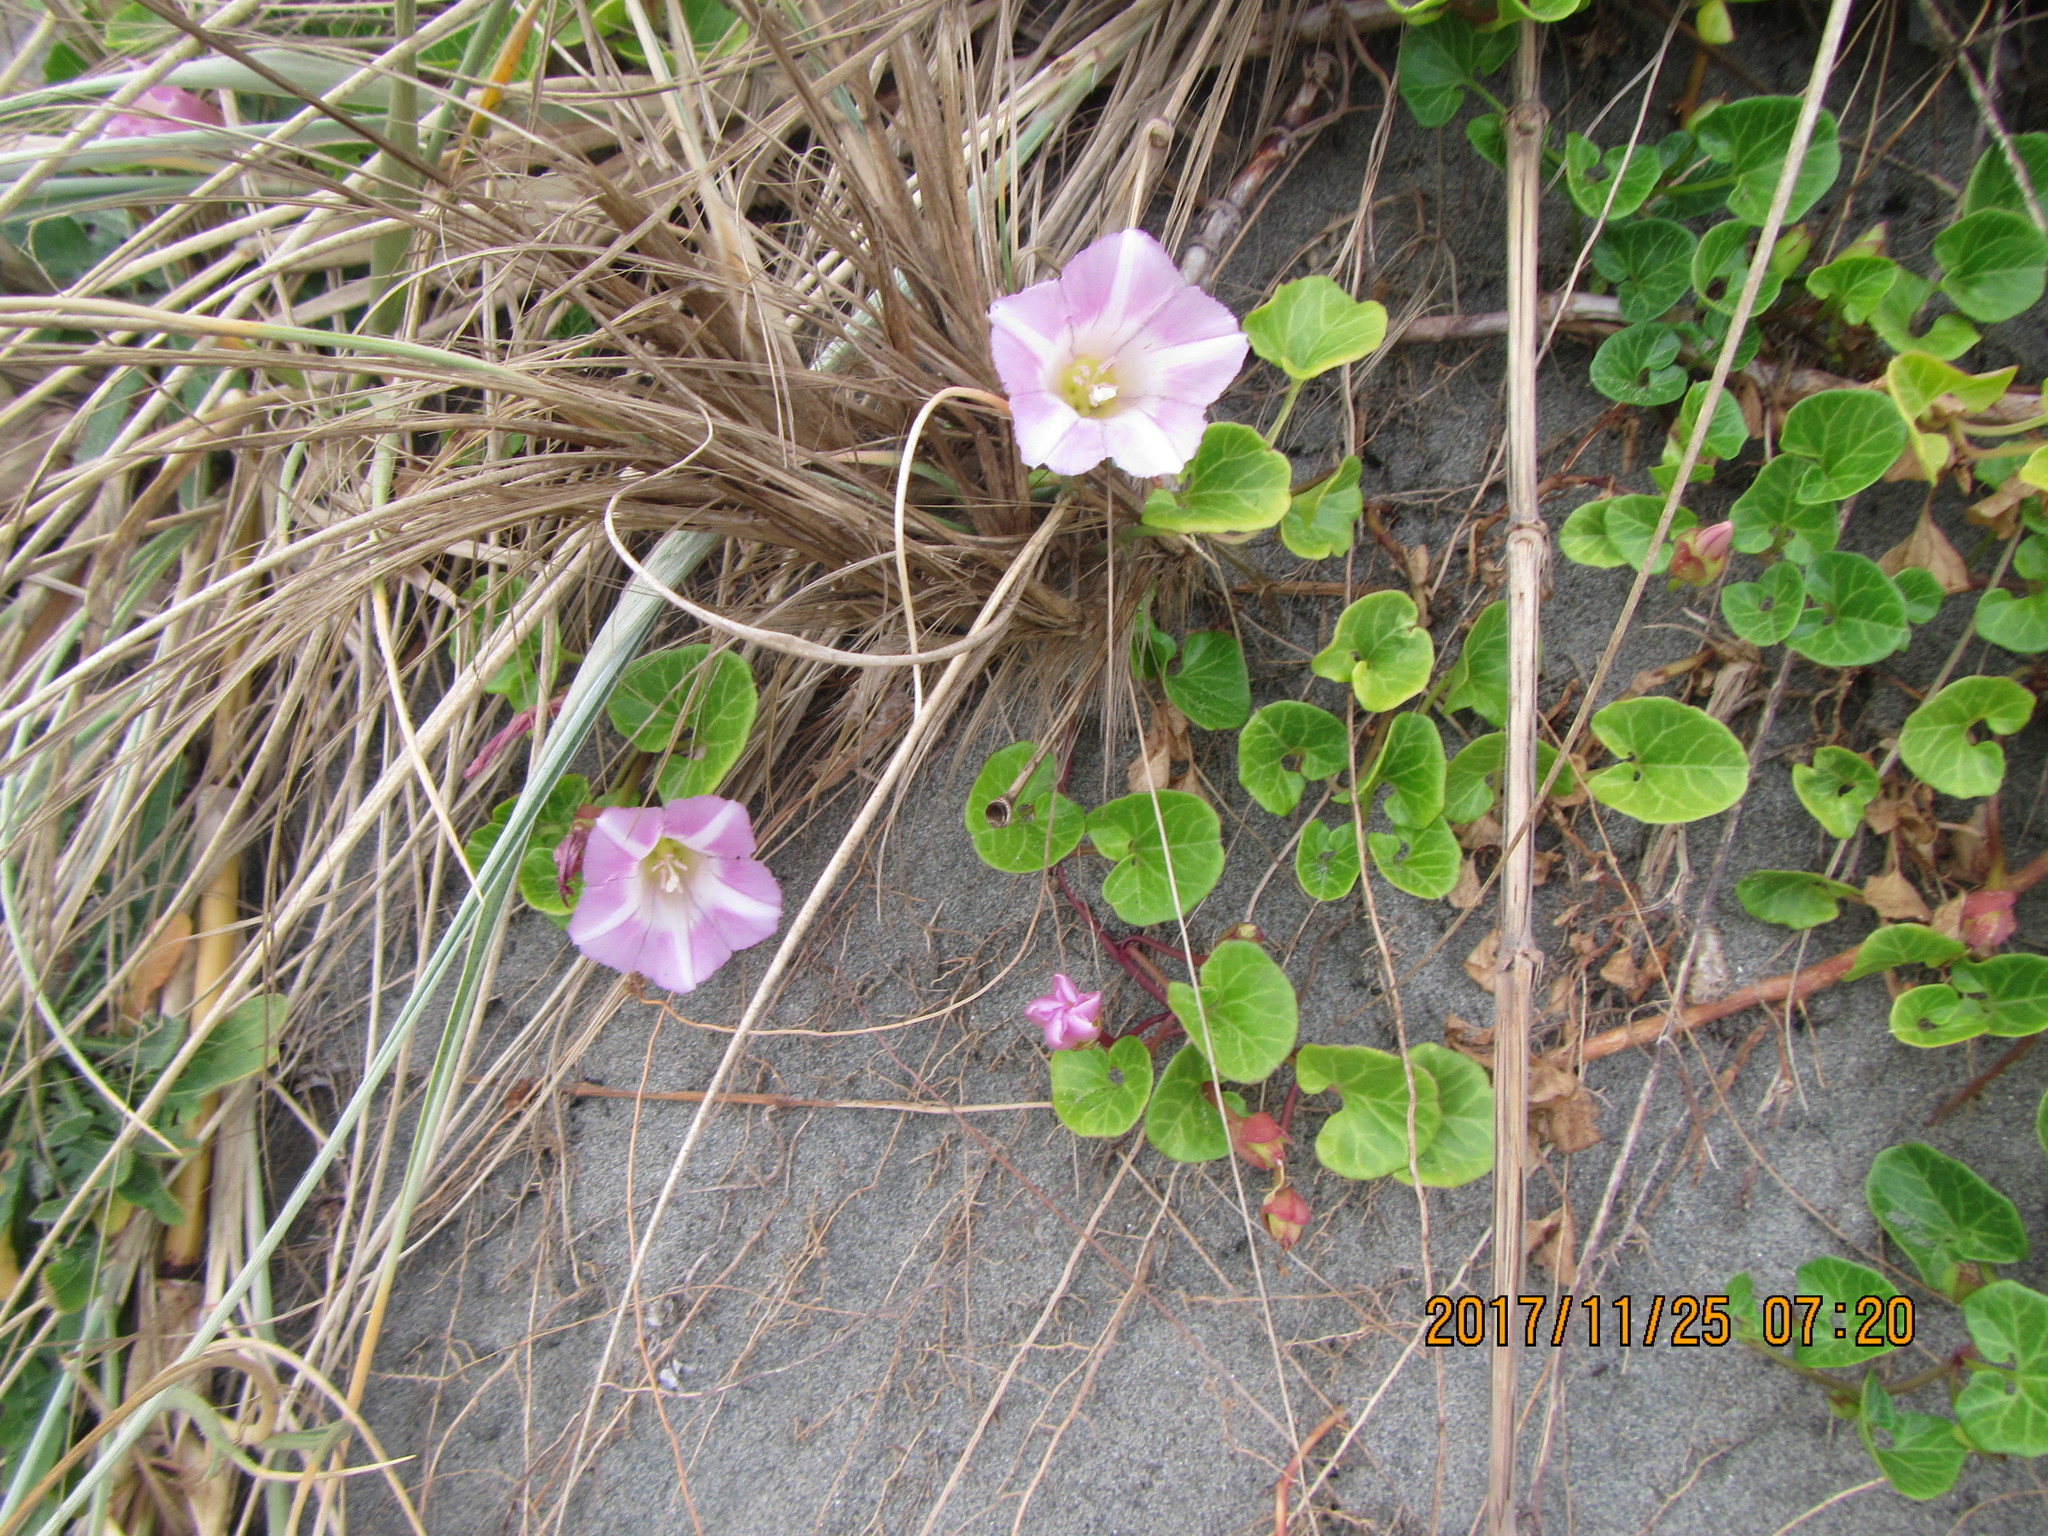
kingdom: Plantae
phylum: Tracheophyta
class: Magnoliopsida
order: Solanales
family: Convolvulaceae
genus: Calystegia
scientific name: Calystegia soldanella
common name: Sea bindweed
